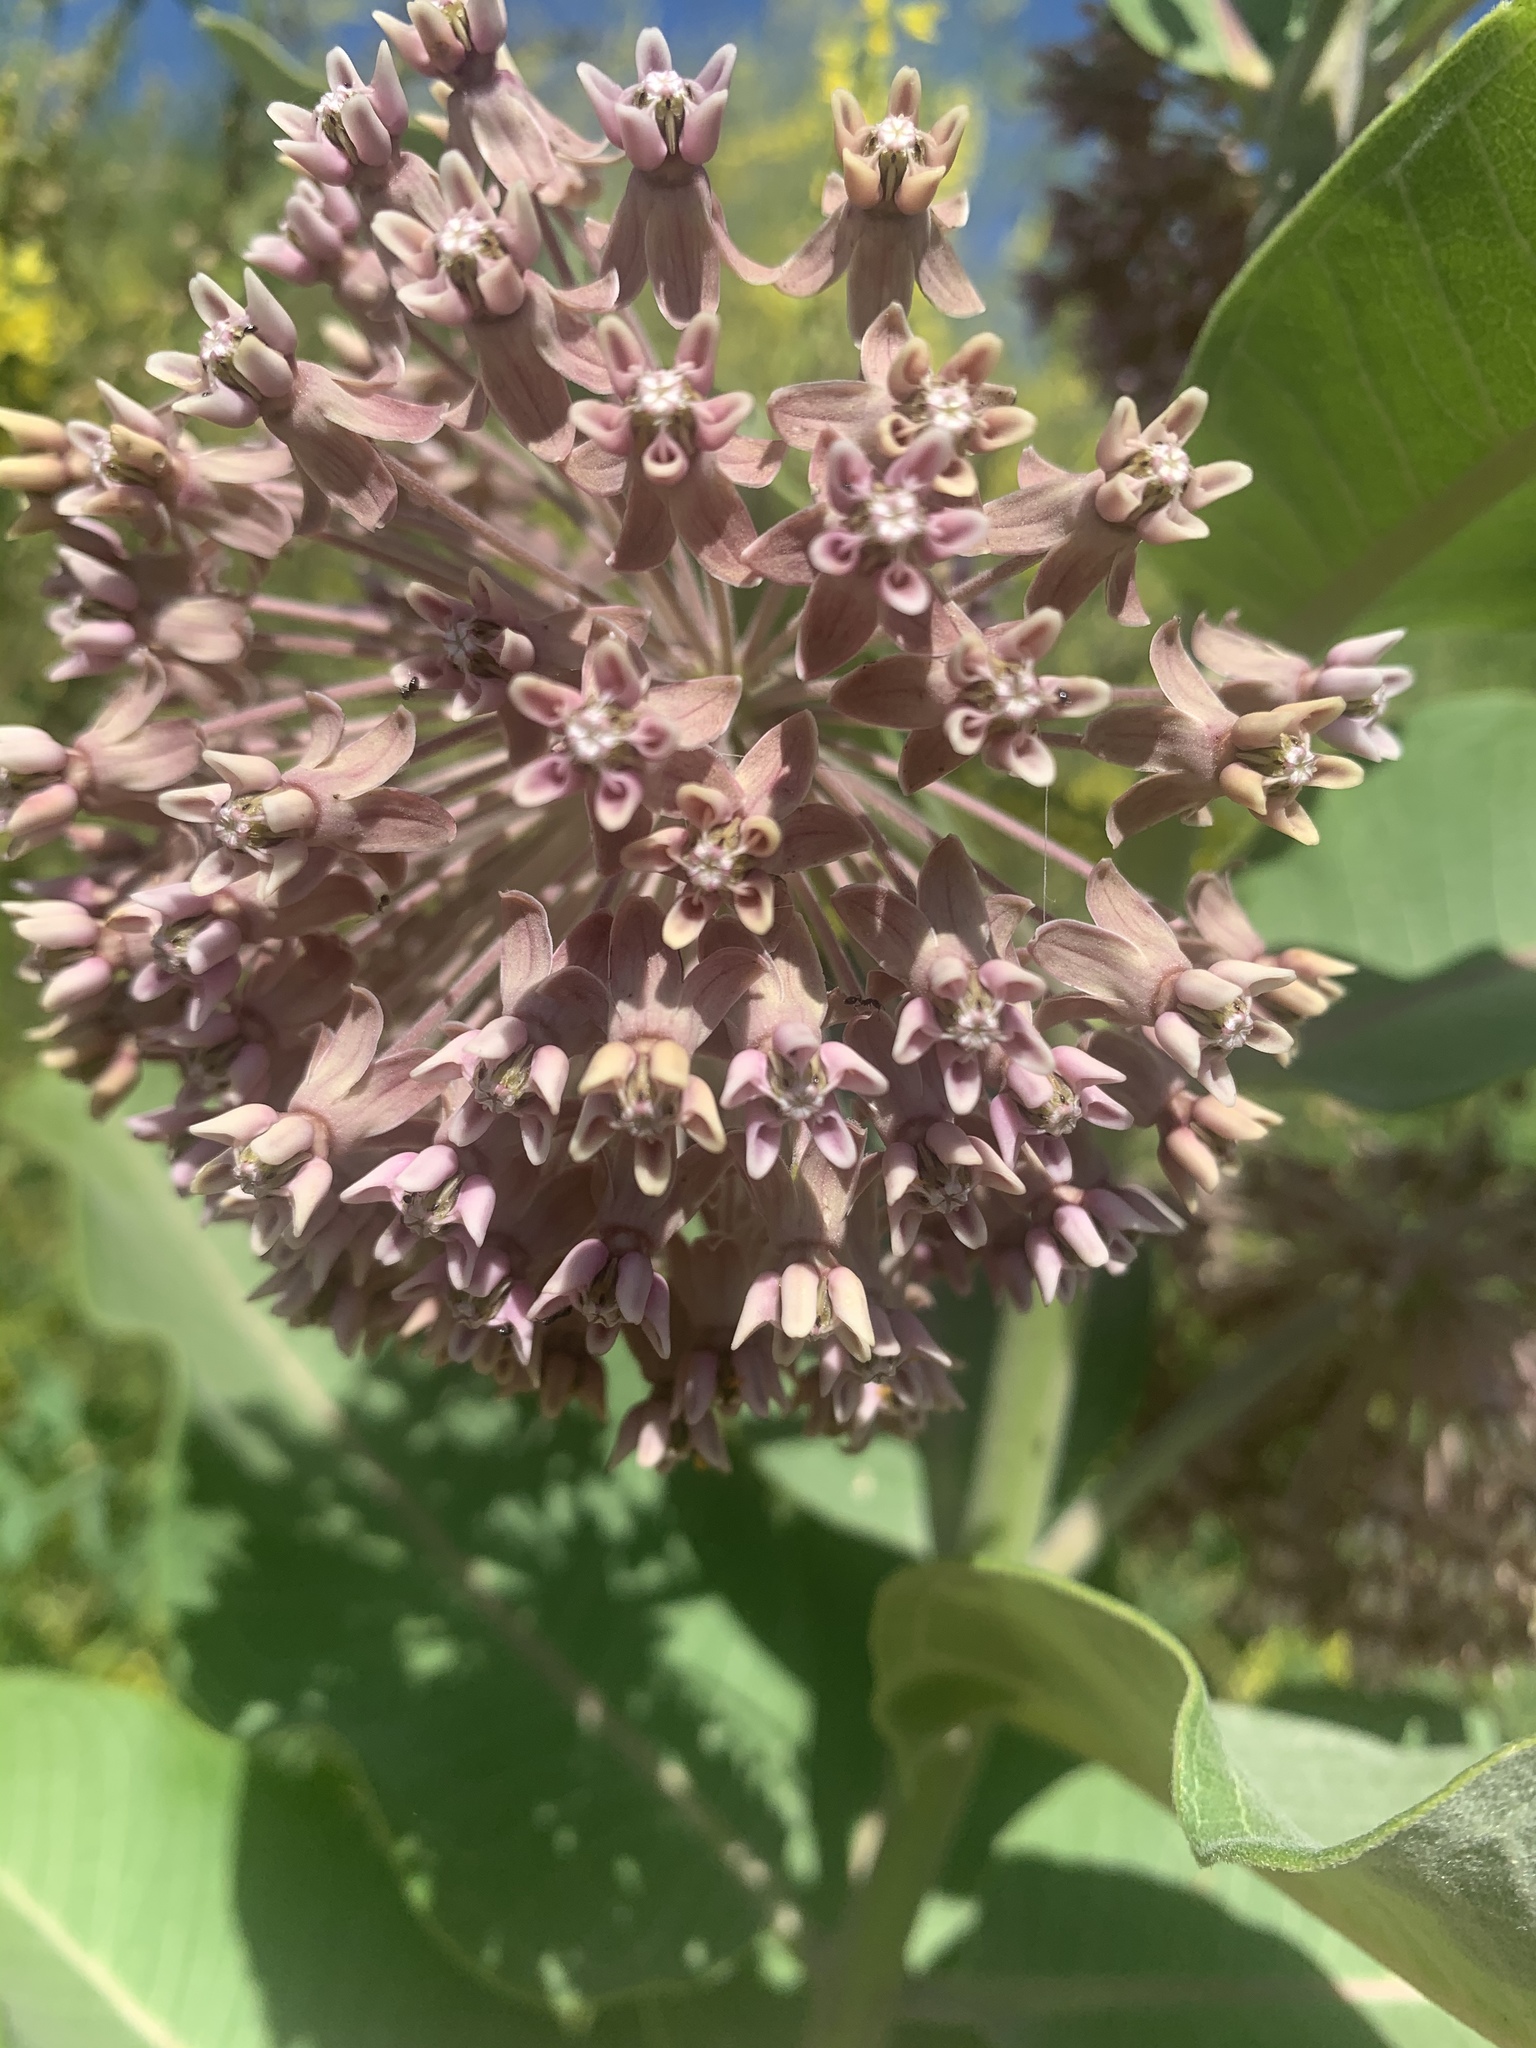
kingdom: Plantae
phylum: Tracheophyta
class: Magnoliopsida
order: Gentianales
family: Apocynaceae
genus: Asclepias
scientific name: Asclepias syriaca
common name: Common milkweed
